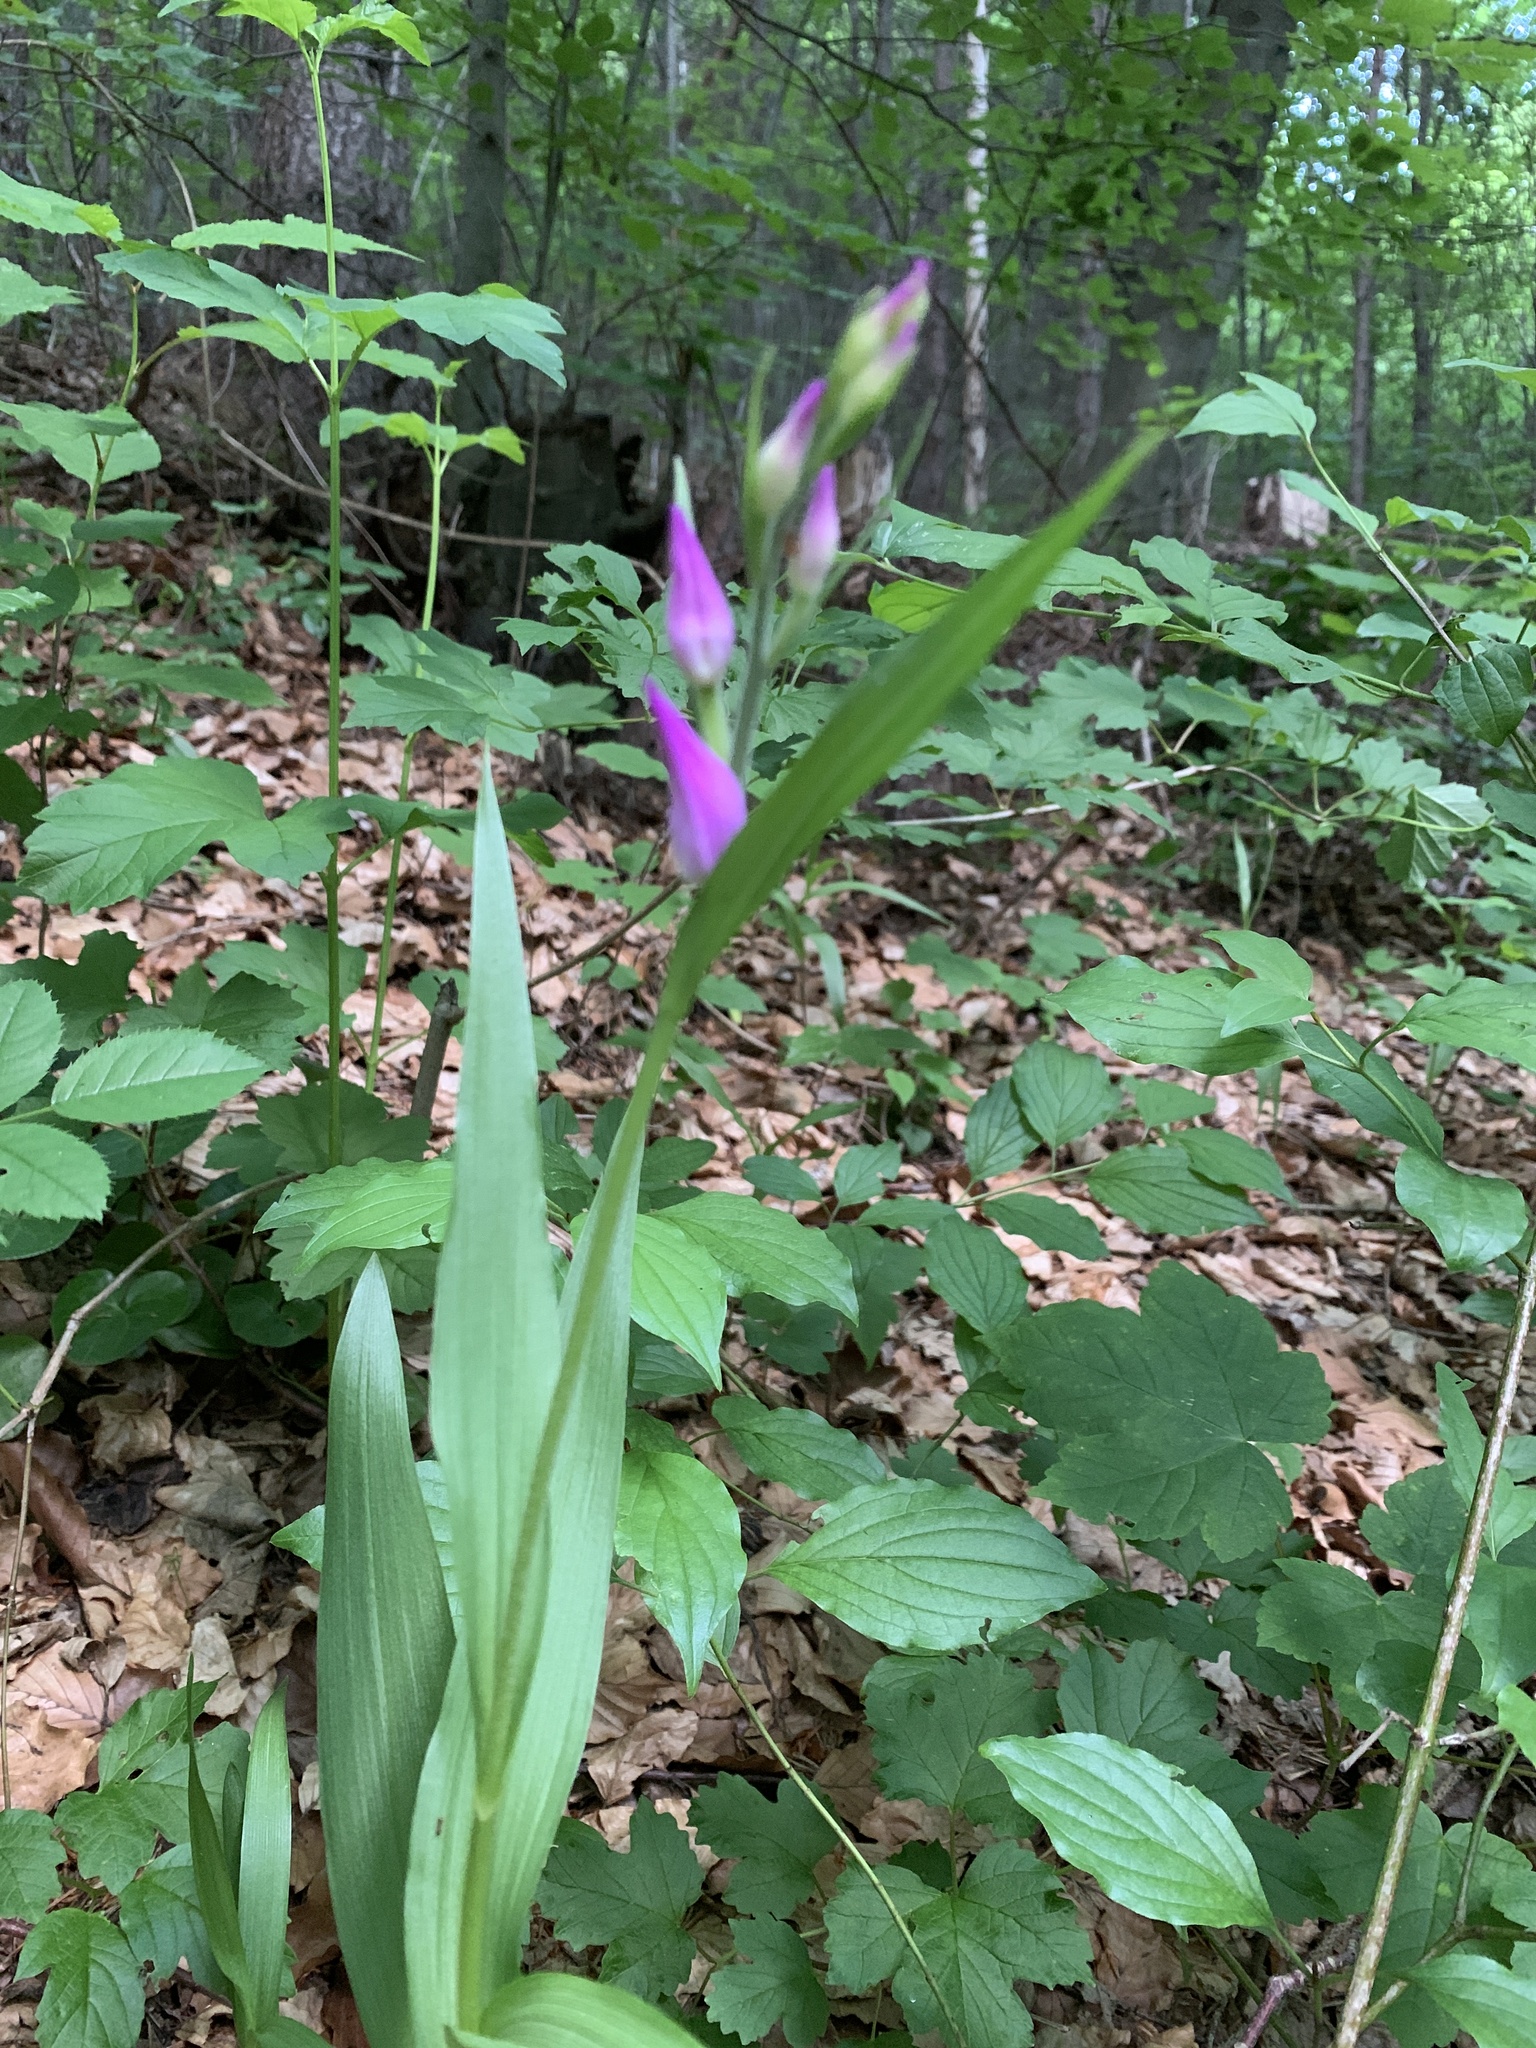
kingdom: Plantae
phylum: Tracheophyta
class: Liliopsida
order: Asparagales
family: Orchidaceae
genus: Cephalanthera
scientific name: Cephalanthera rubra
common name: Red helleborine
